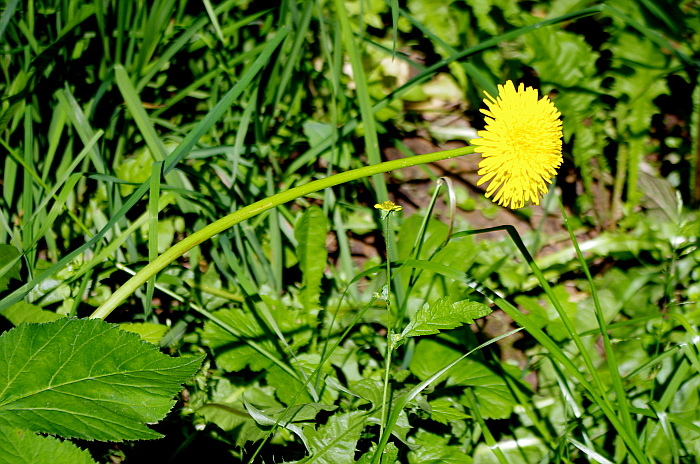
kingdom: Plantae
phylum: Tracheophyta
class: Magnoliopsida
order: Asterales
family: Asteraceae
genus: Taraxacum
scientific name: Taraxacum officinale
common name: Common dandelion
